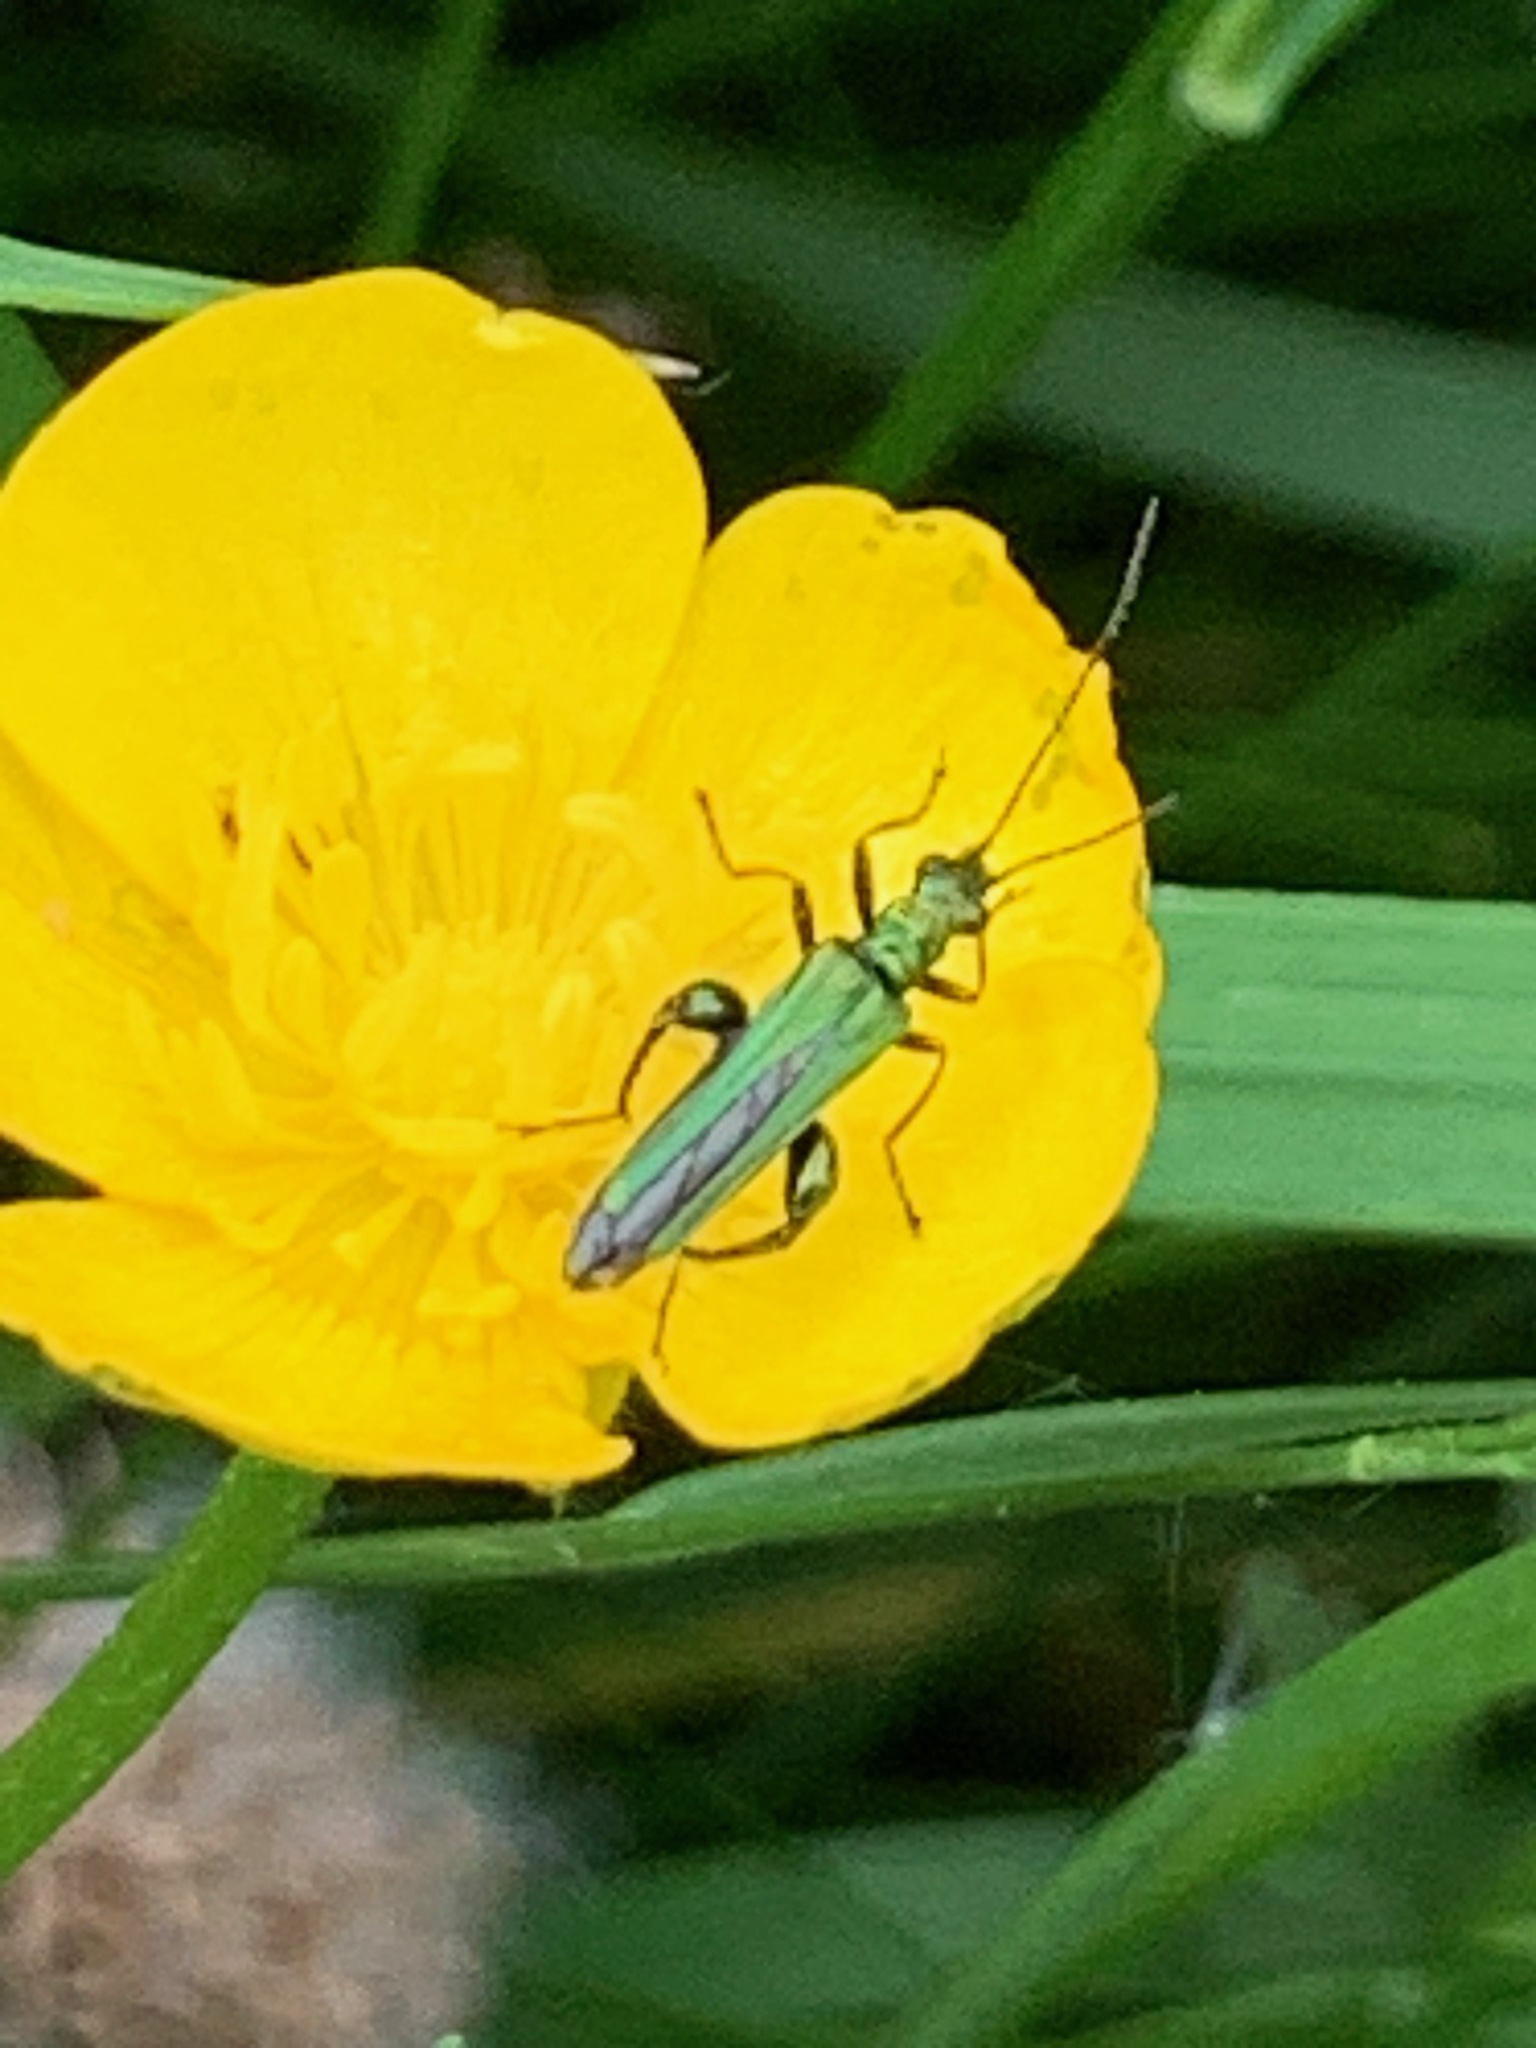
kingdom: Animalia
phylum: Arthropoda
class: Insecta
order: Coleoptera
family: Oedemeridae
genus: Oedemera
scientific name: Oedemera nobilis
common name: Swollen-thighed beetle
